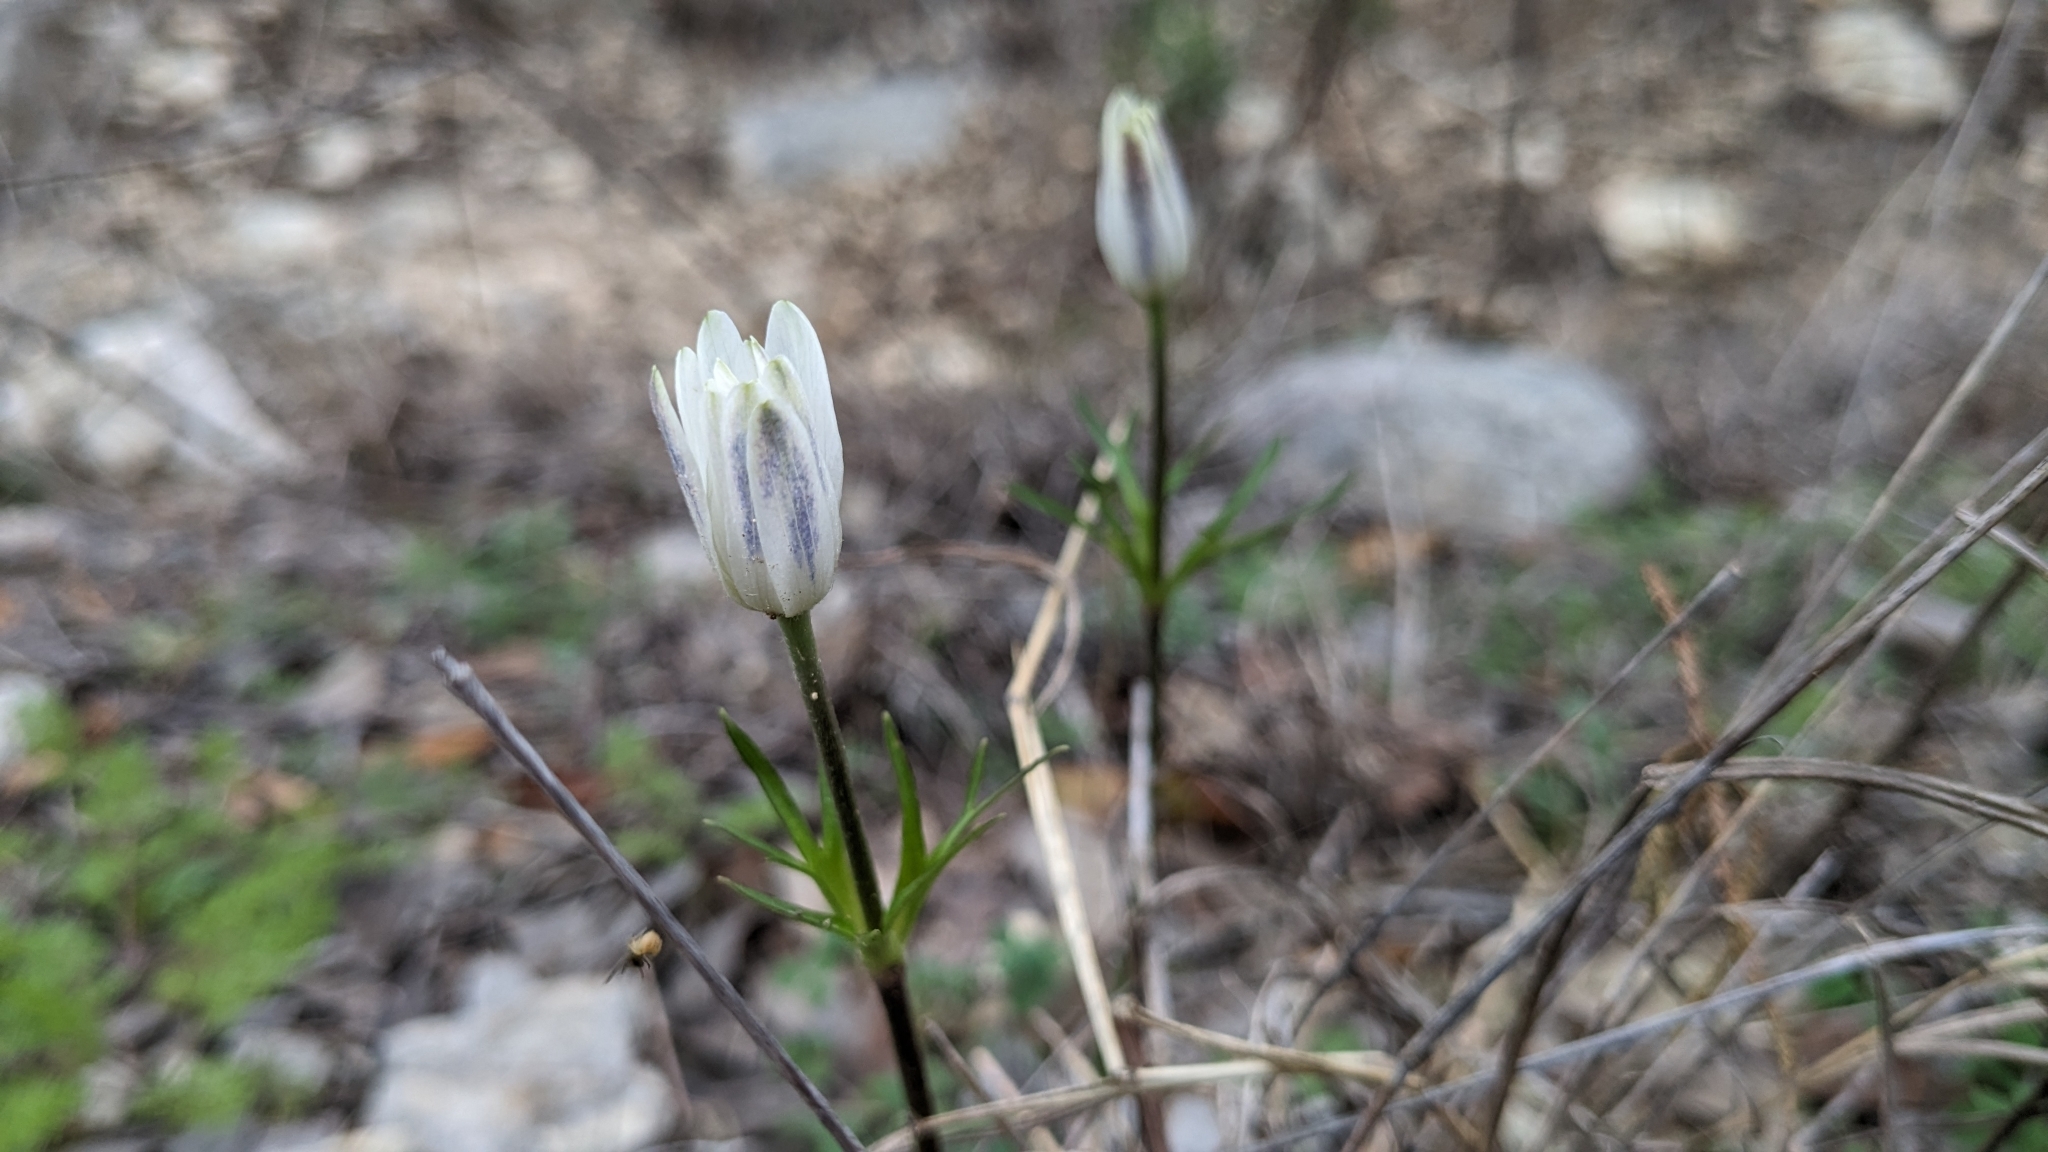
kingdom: Plantae
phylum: Tracheophyta
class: Magnoliopsida
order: Ranunculales
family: Ranunculaceae
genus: Anemone
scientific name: Anemone berlandieri
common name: Ten-petal anemone
